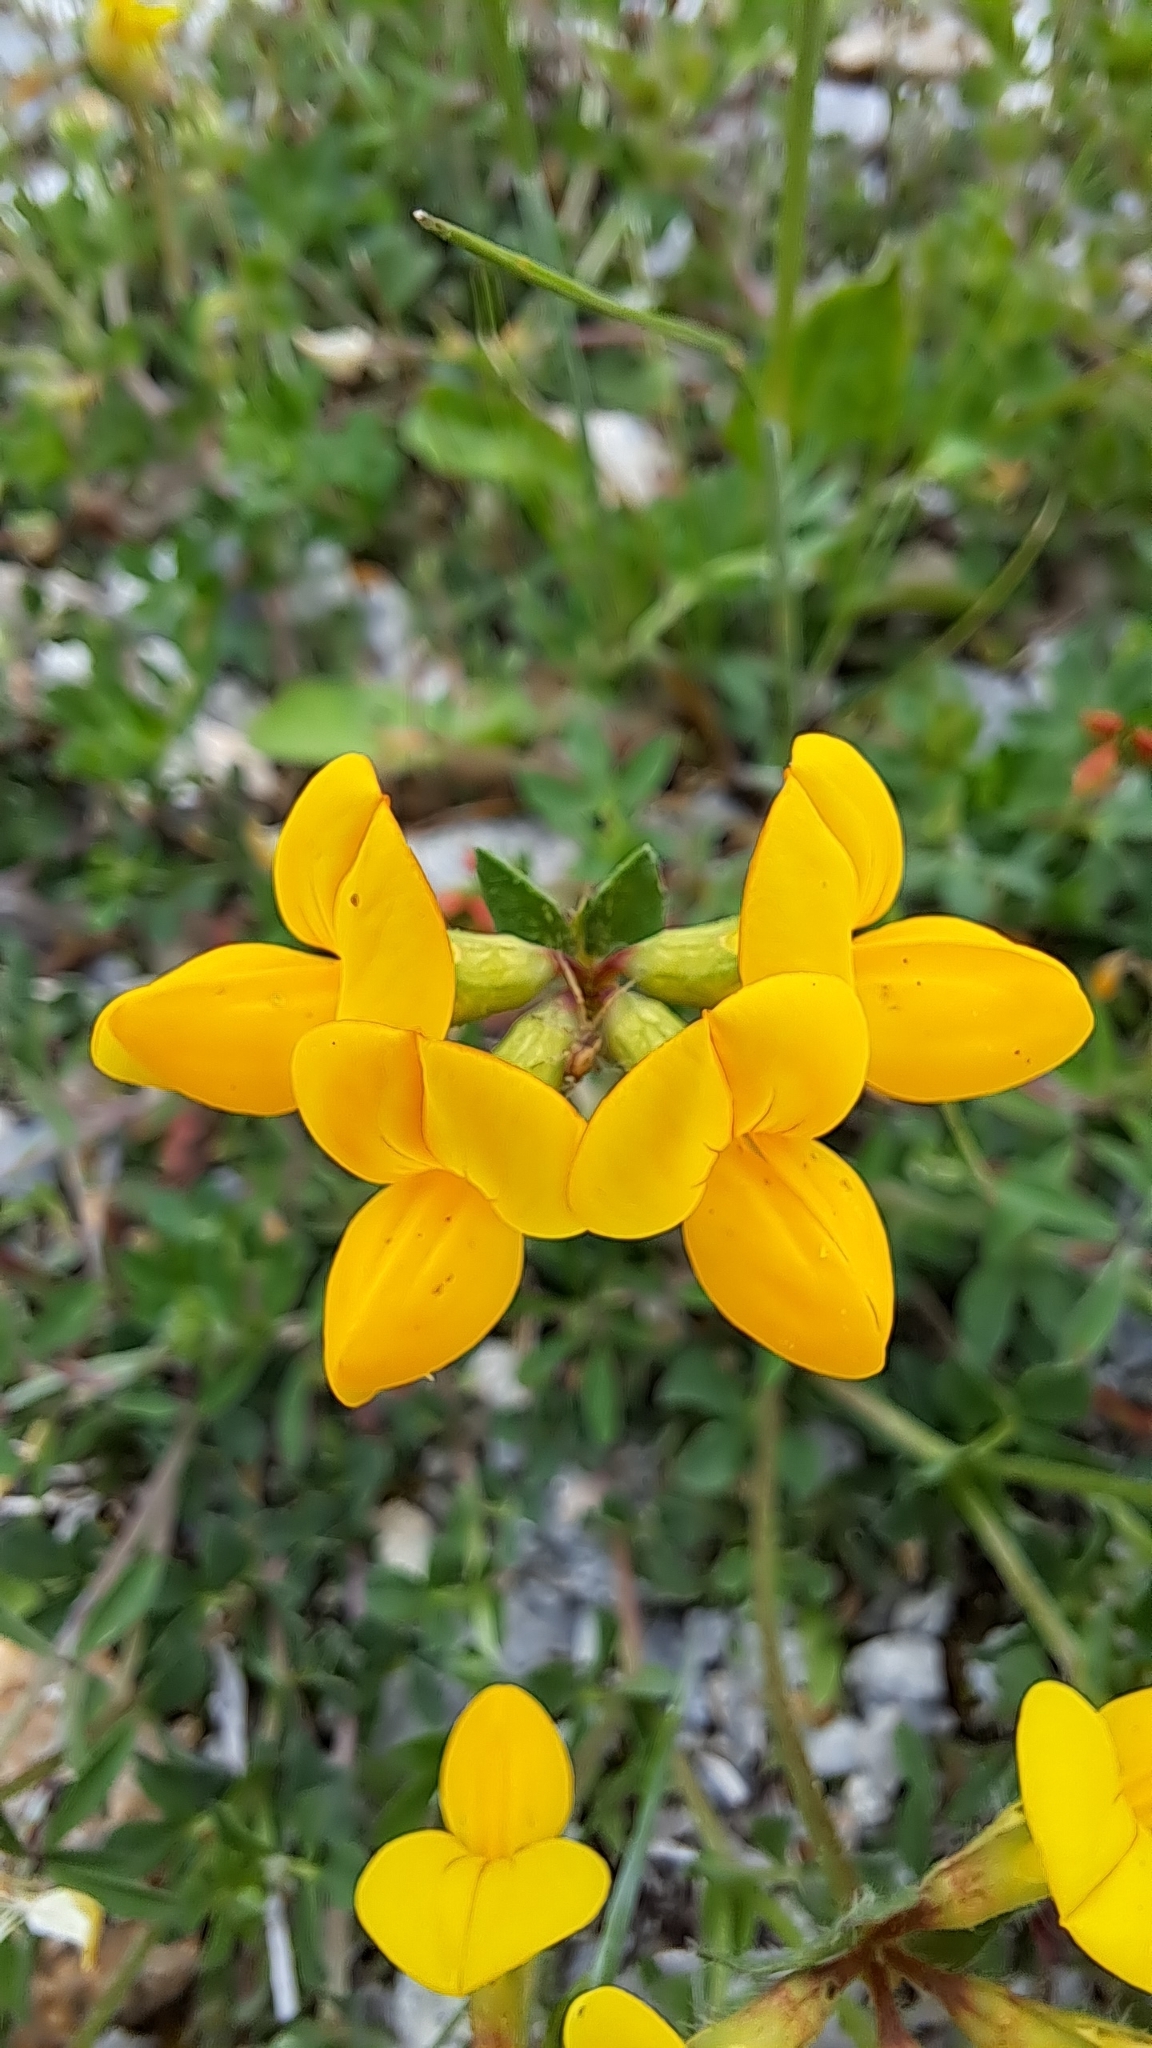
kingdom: Plantae
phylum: Tracheophyta
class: Magnoliopsida
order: Fabales
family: Fabaceae
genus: Lotus
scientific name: Lotus corniculatus
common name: Common bird's-foot-trefoil
